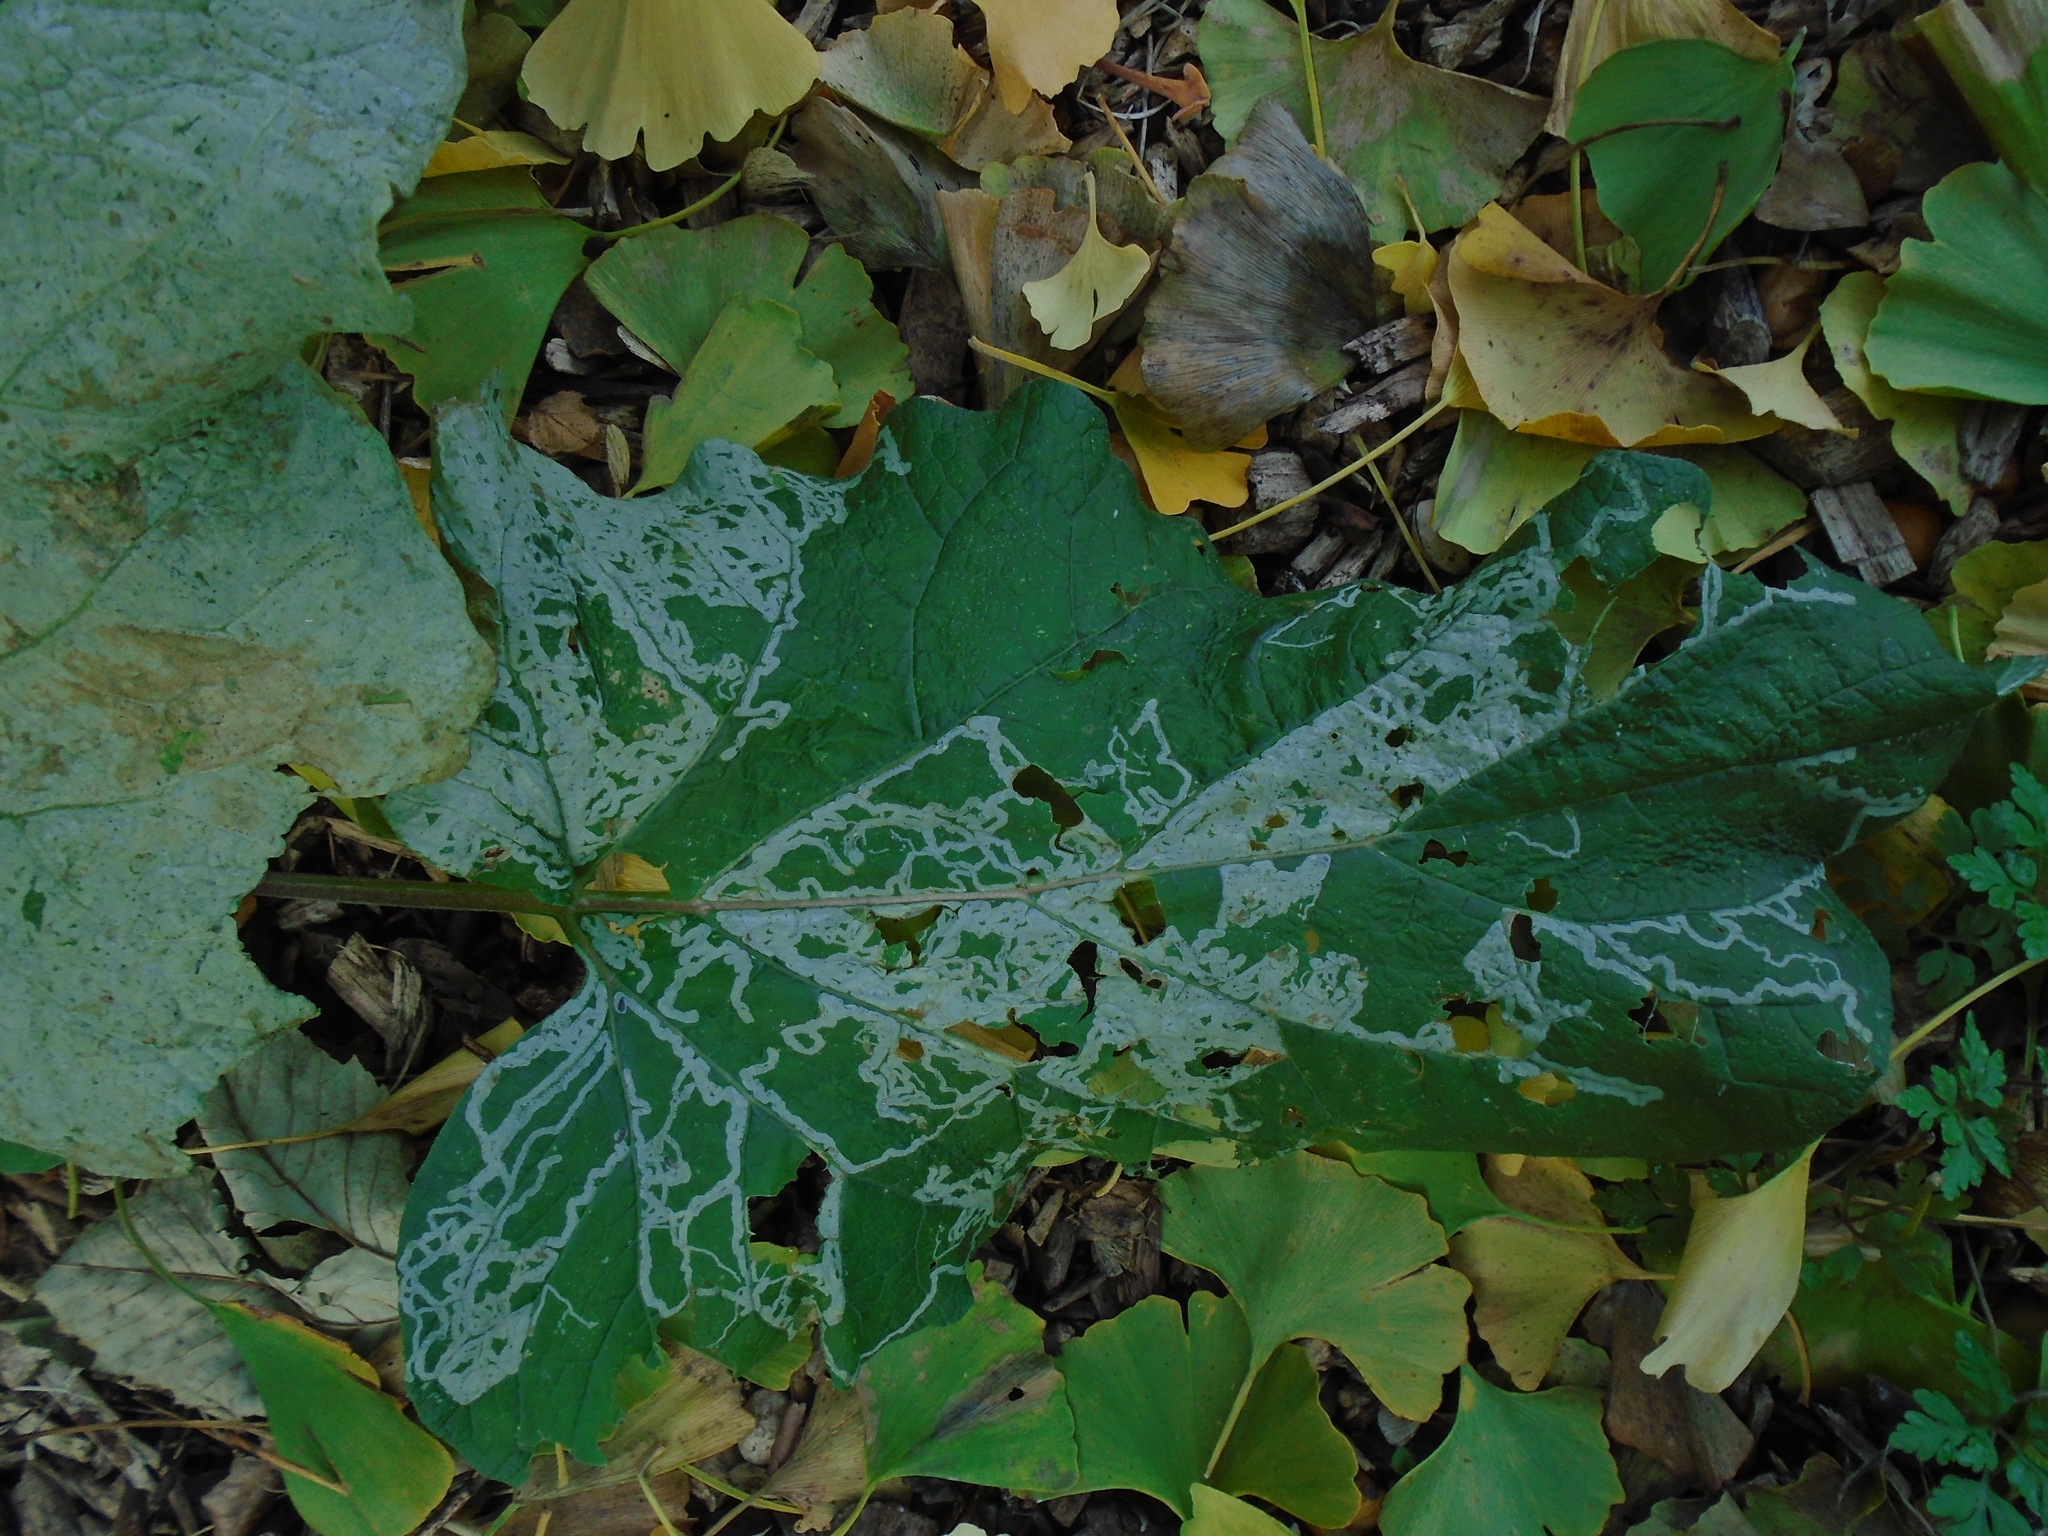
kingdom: Animalia
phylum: Arthropoda
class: Insecta
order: Diptera
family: Agromyzidae
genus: Phytomyza
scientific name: Phytomyza lappae
